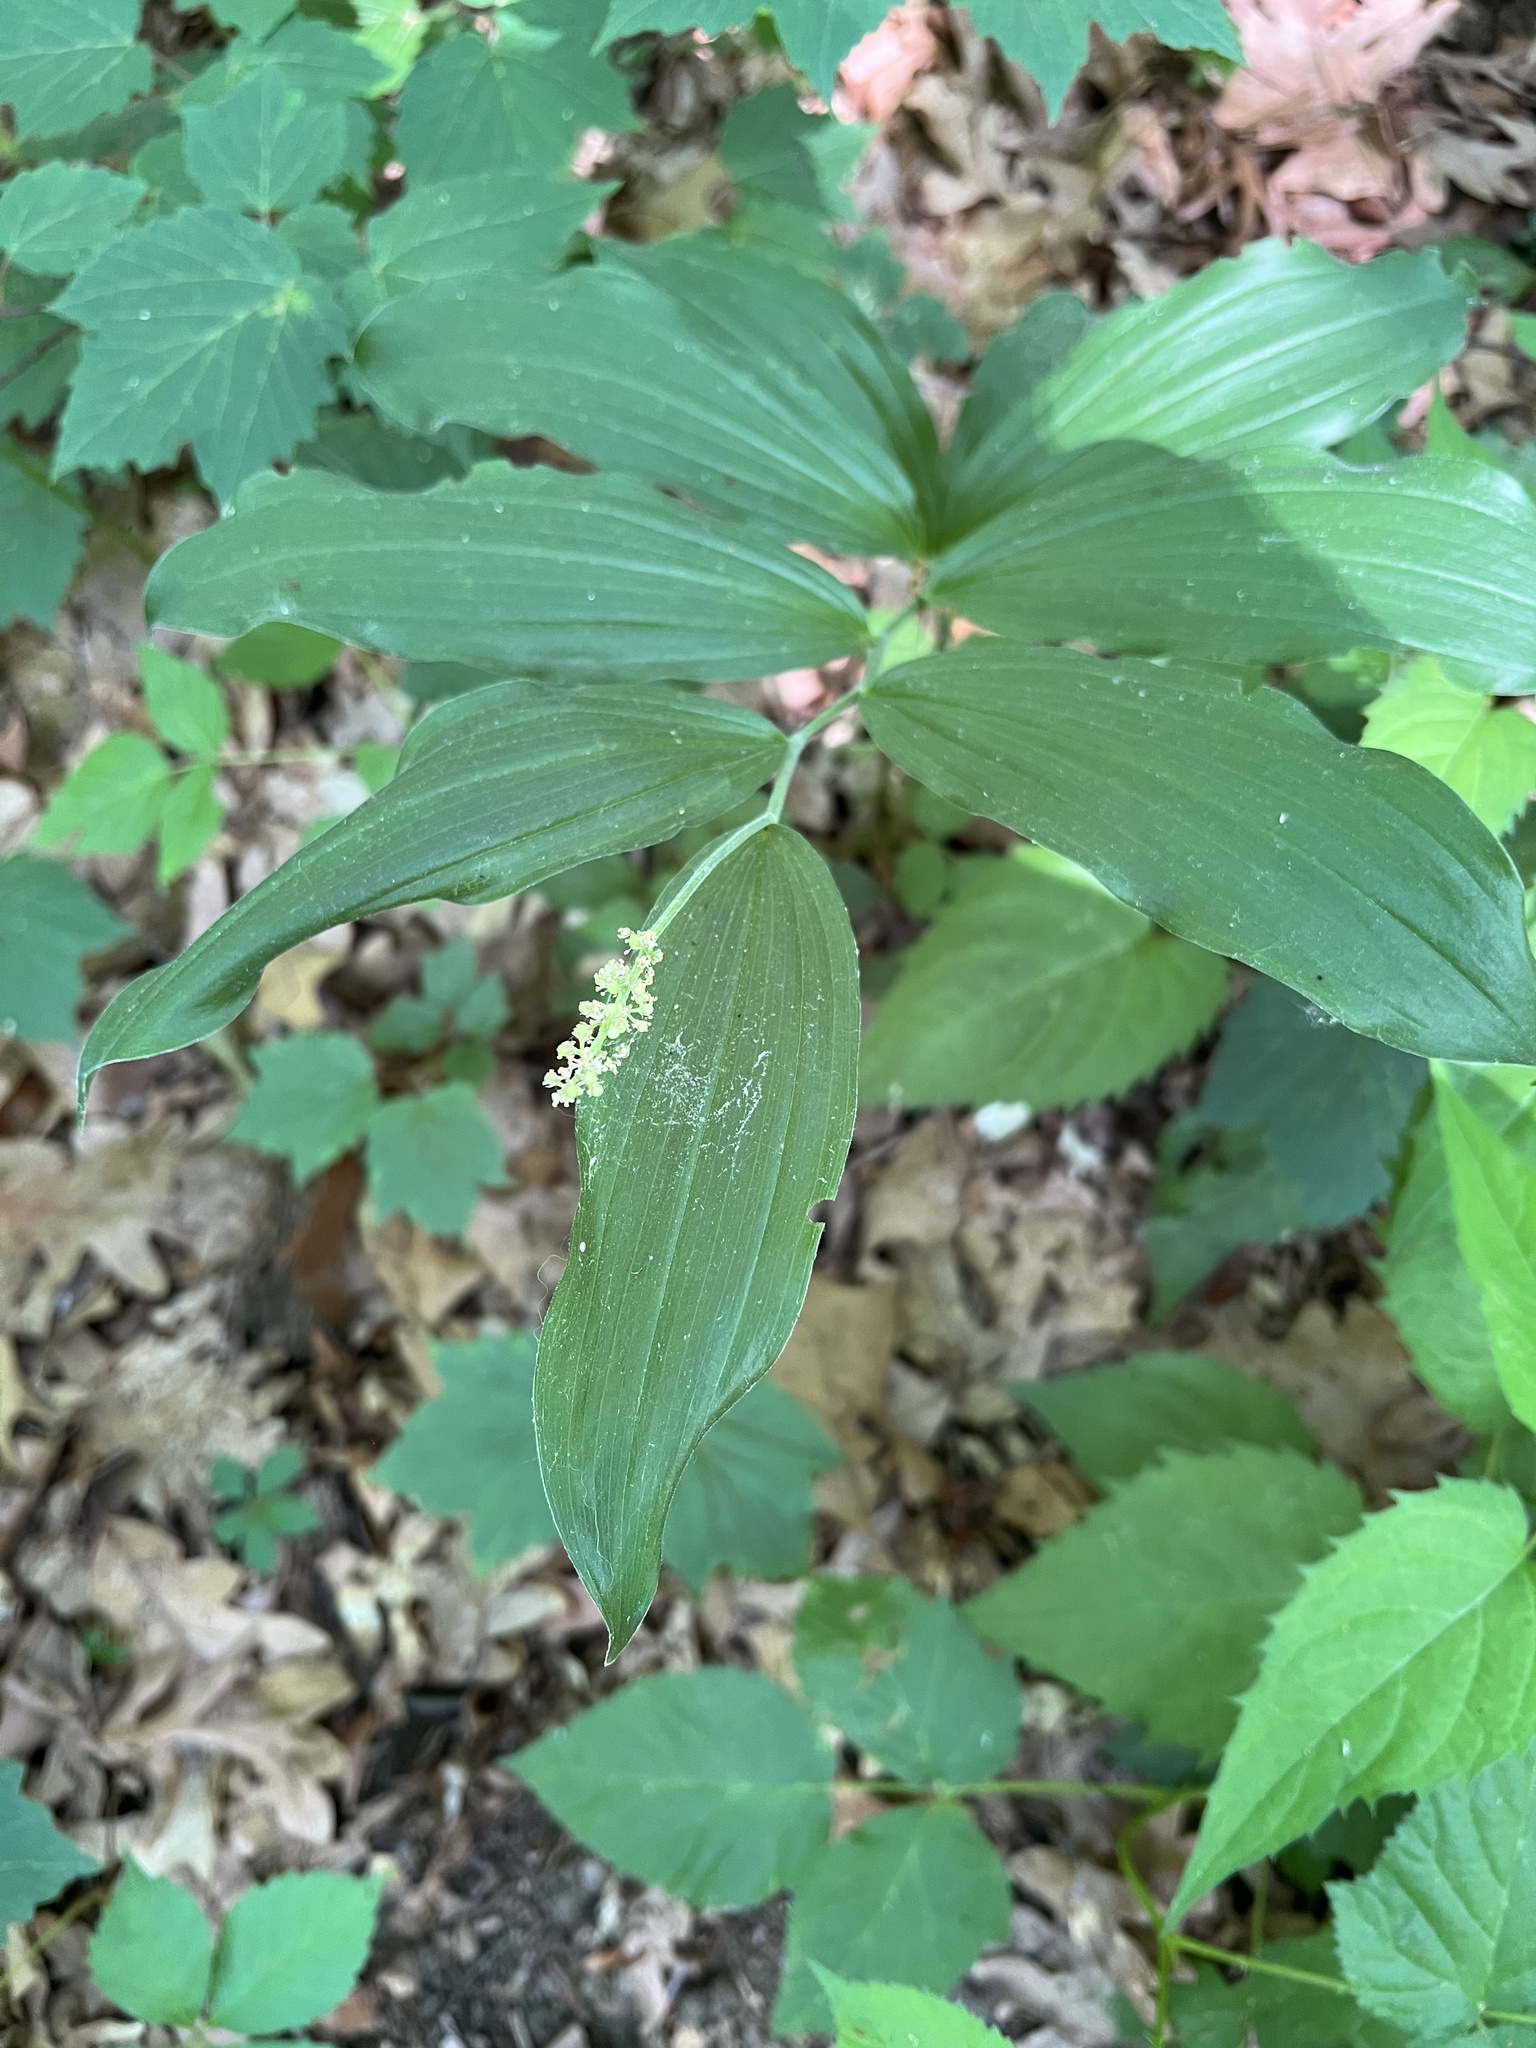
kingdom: Plantae
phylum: Tracheophyta
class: Liliopsida
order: Asparagales
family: Asparagaceae
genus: Maianthemum
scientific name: Maianthemum racemosum
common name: False spikenard
